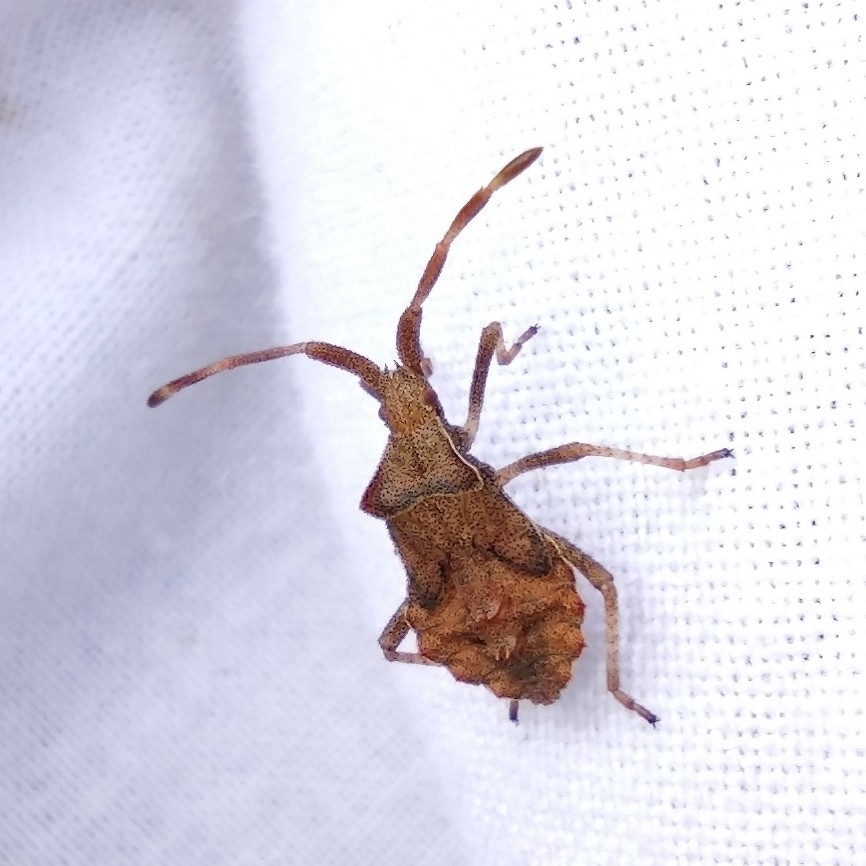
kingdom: Animalia
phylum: Arthropoda
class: Insecta
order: Hemiptera
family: Coreidae
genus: Coreus
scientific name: Coreus marginatus
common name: Dock bug
